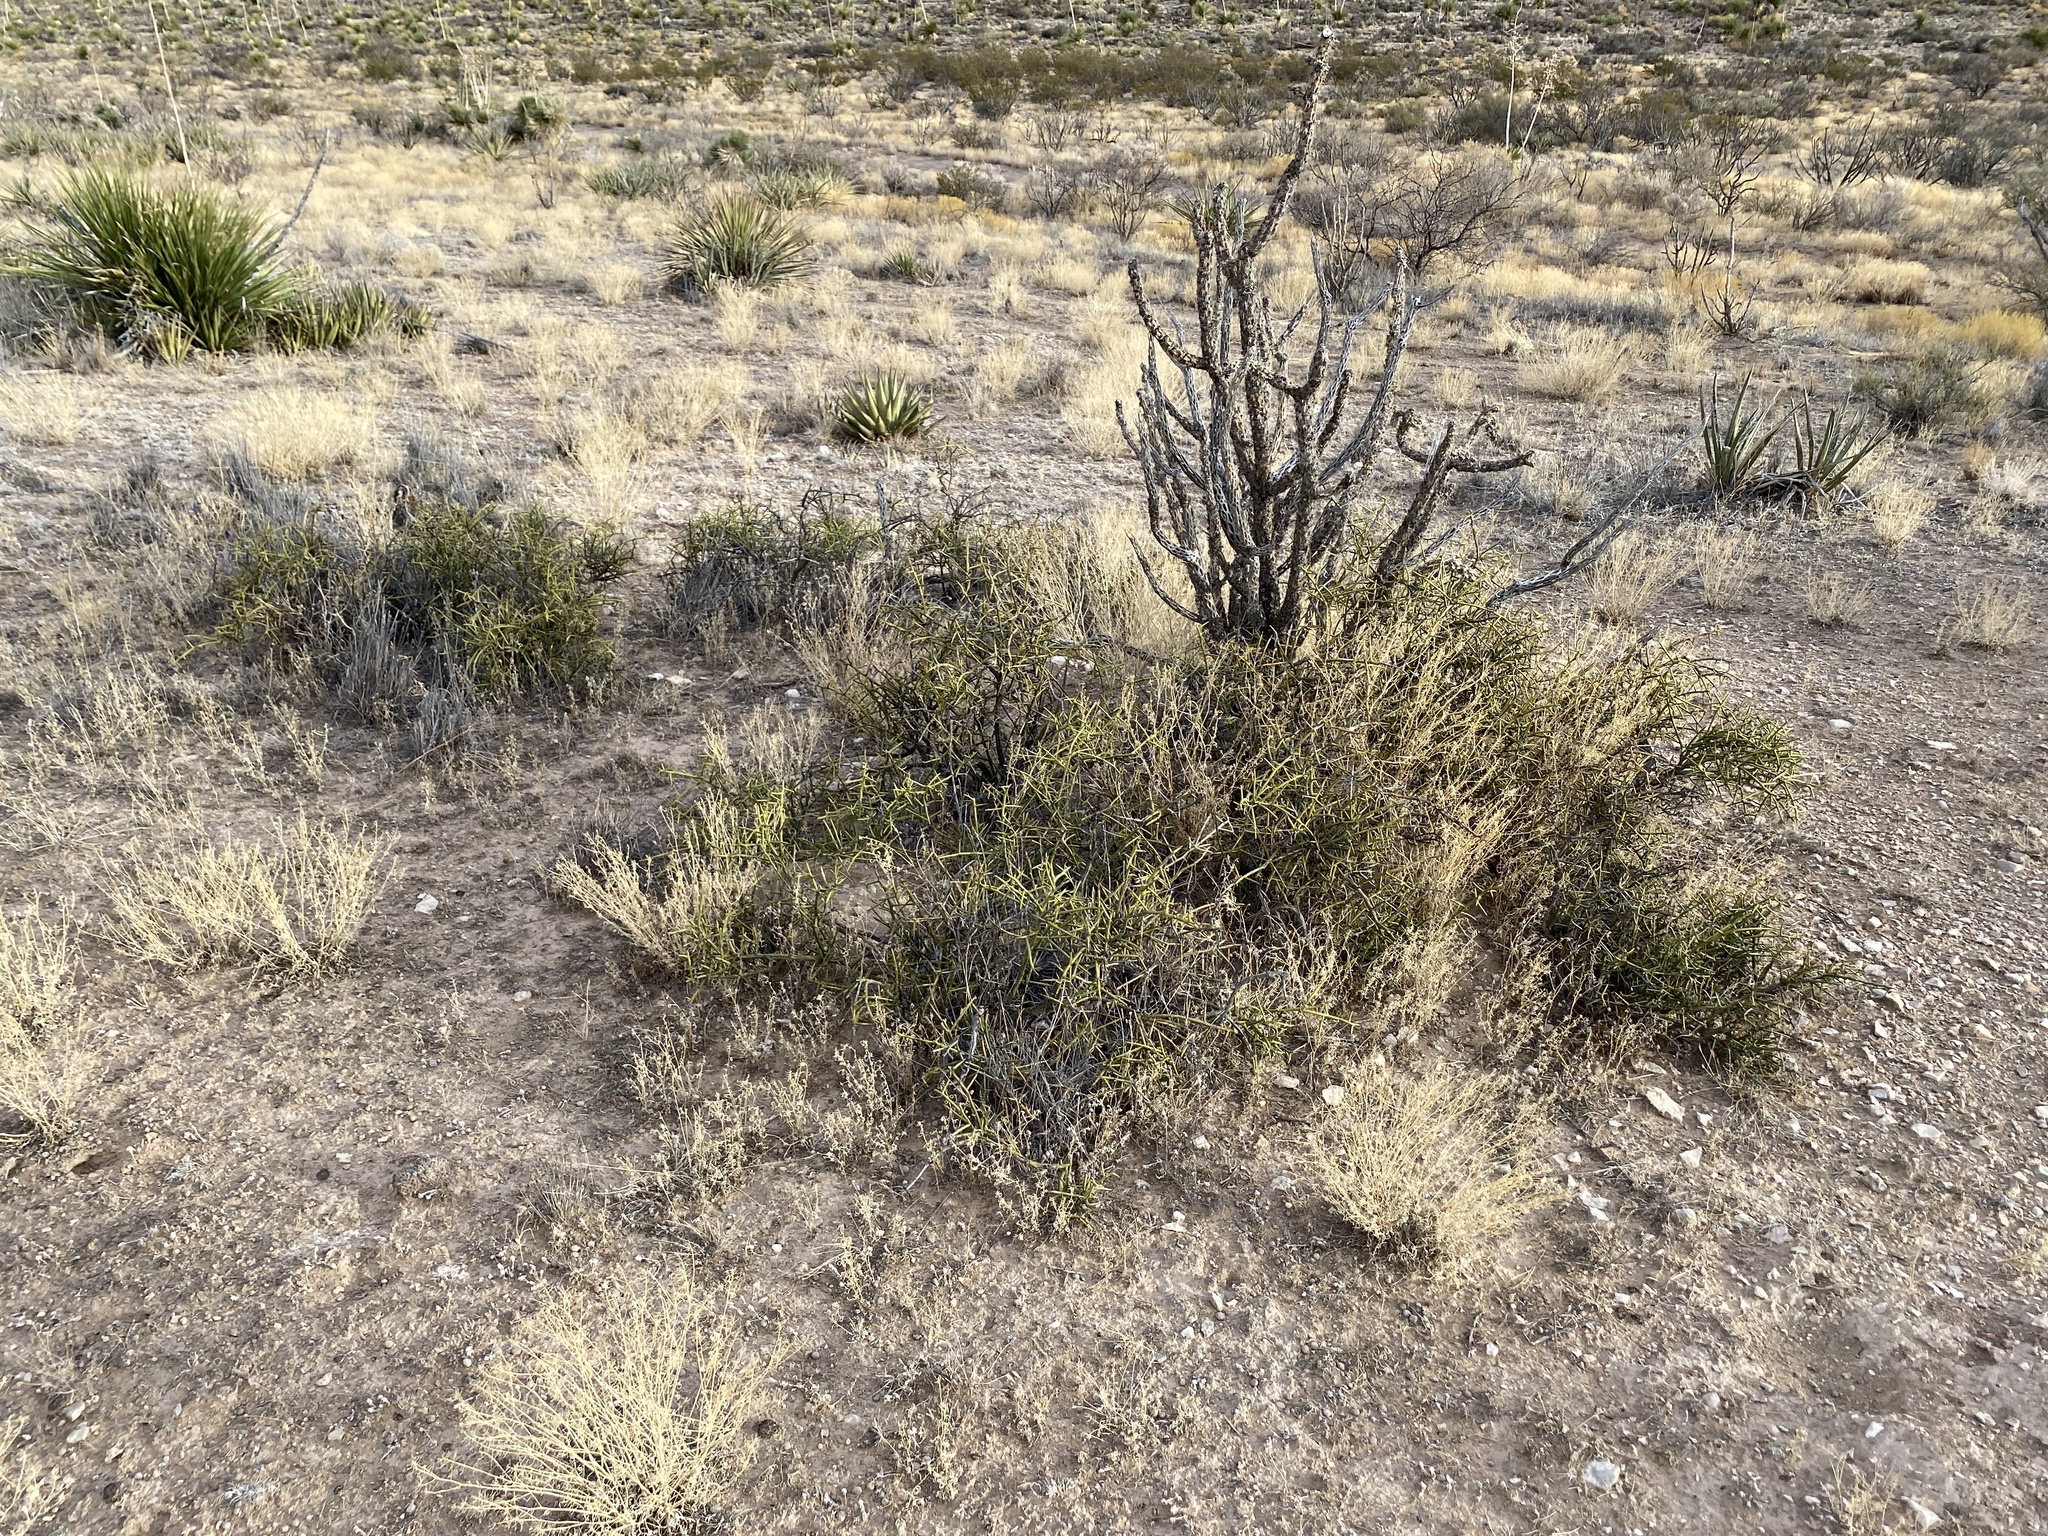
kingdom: Plantae
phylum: Tracheophyta
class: Magnoliopsida
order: Brassicales
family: Koeberliniaceae
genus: Koeberlinia
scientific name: Koeberlinia spinosa
